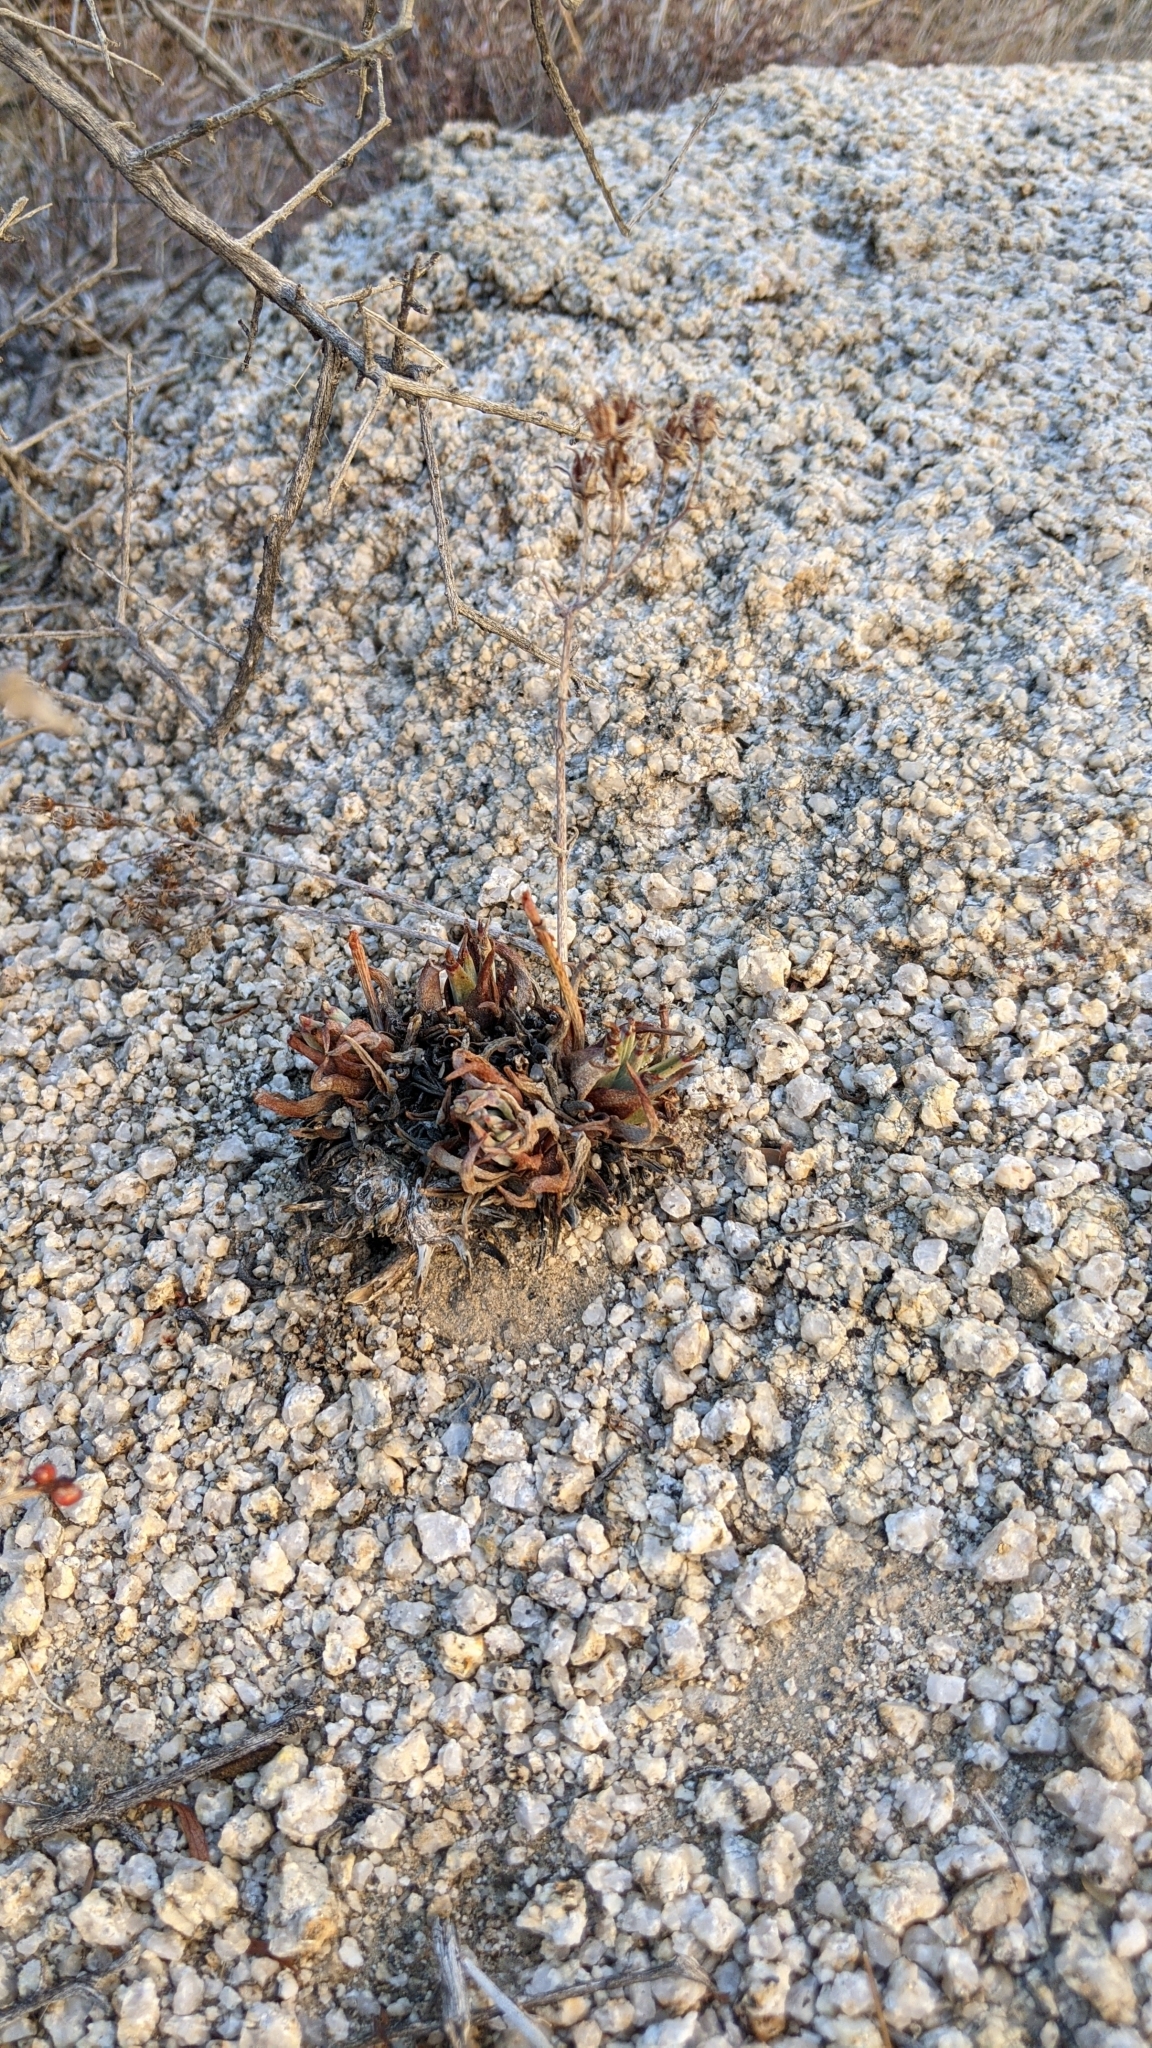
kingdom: Plantae
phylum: Tracheophyta
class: Magnoliopsida
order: Saxifragales
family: Crassulaceae
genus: Dudleya
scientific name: Dudleya saxosa
